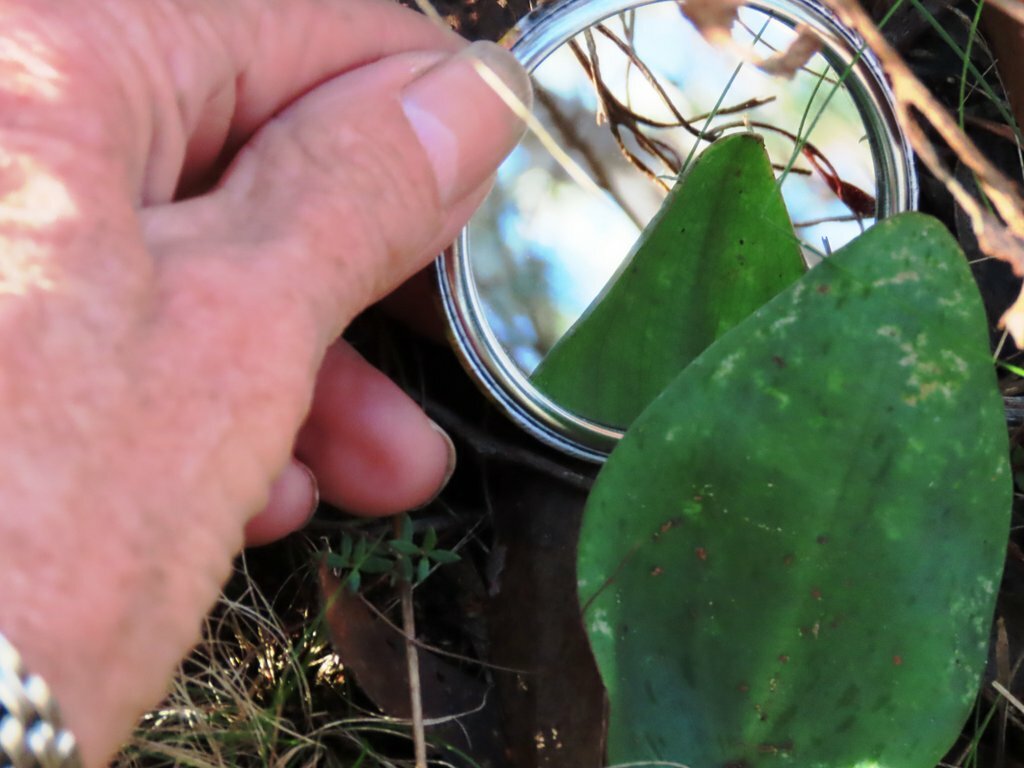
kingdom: Plantae
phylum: Tracheophyta
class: Liliopsida
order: Asparagales
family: Orchidaceae
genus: Pyrorchis
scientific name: Pyrorchis nigricans
